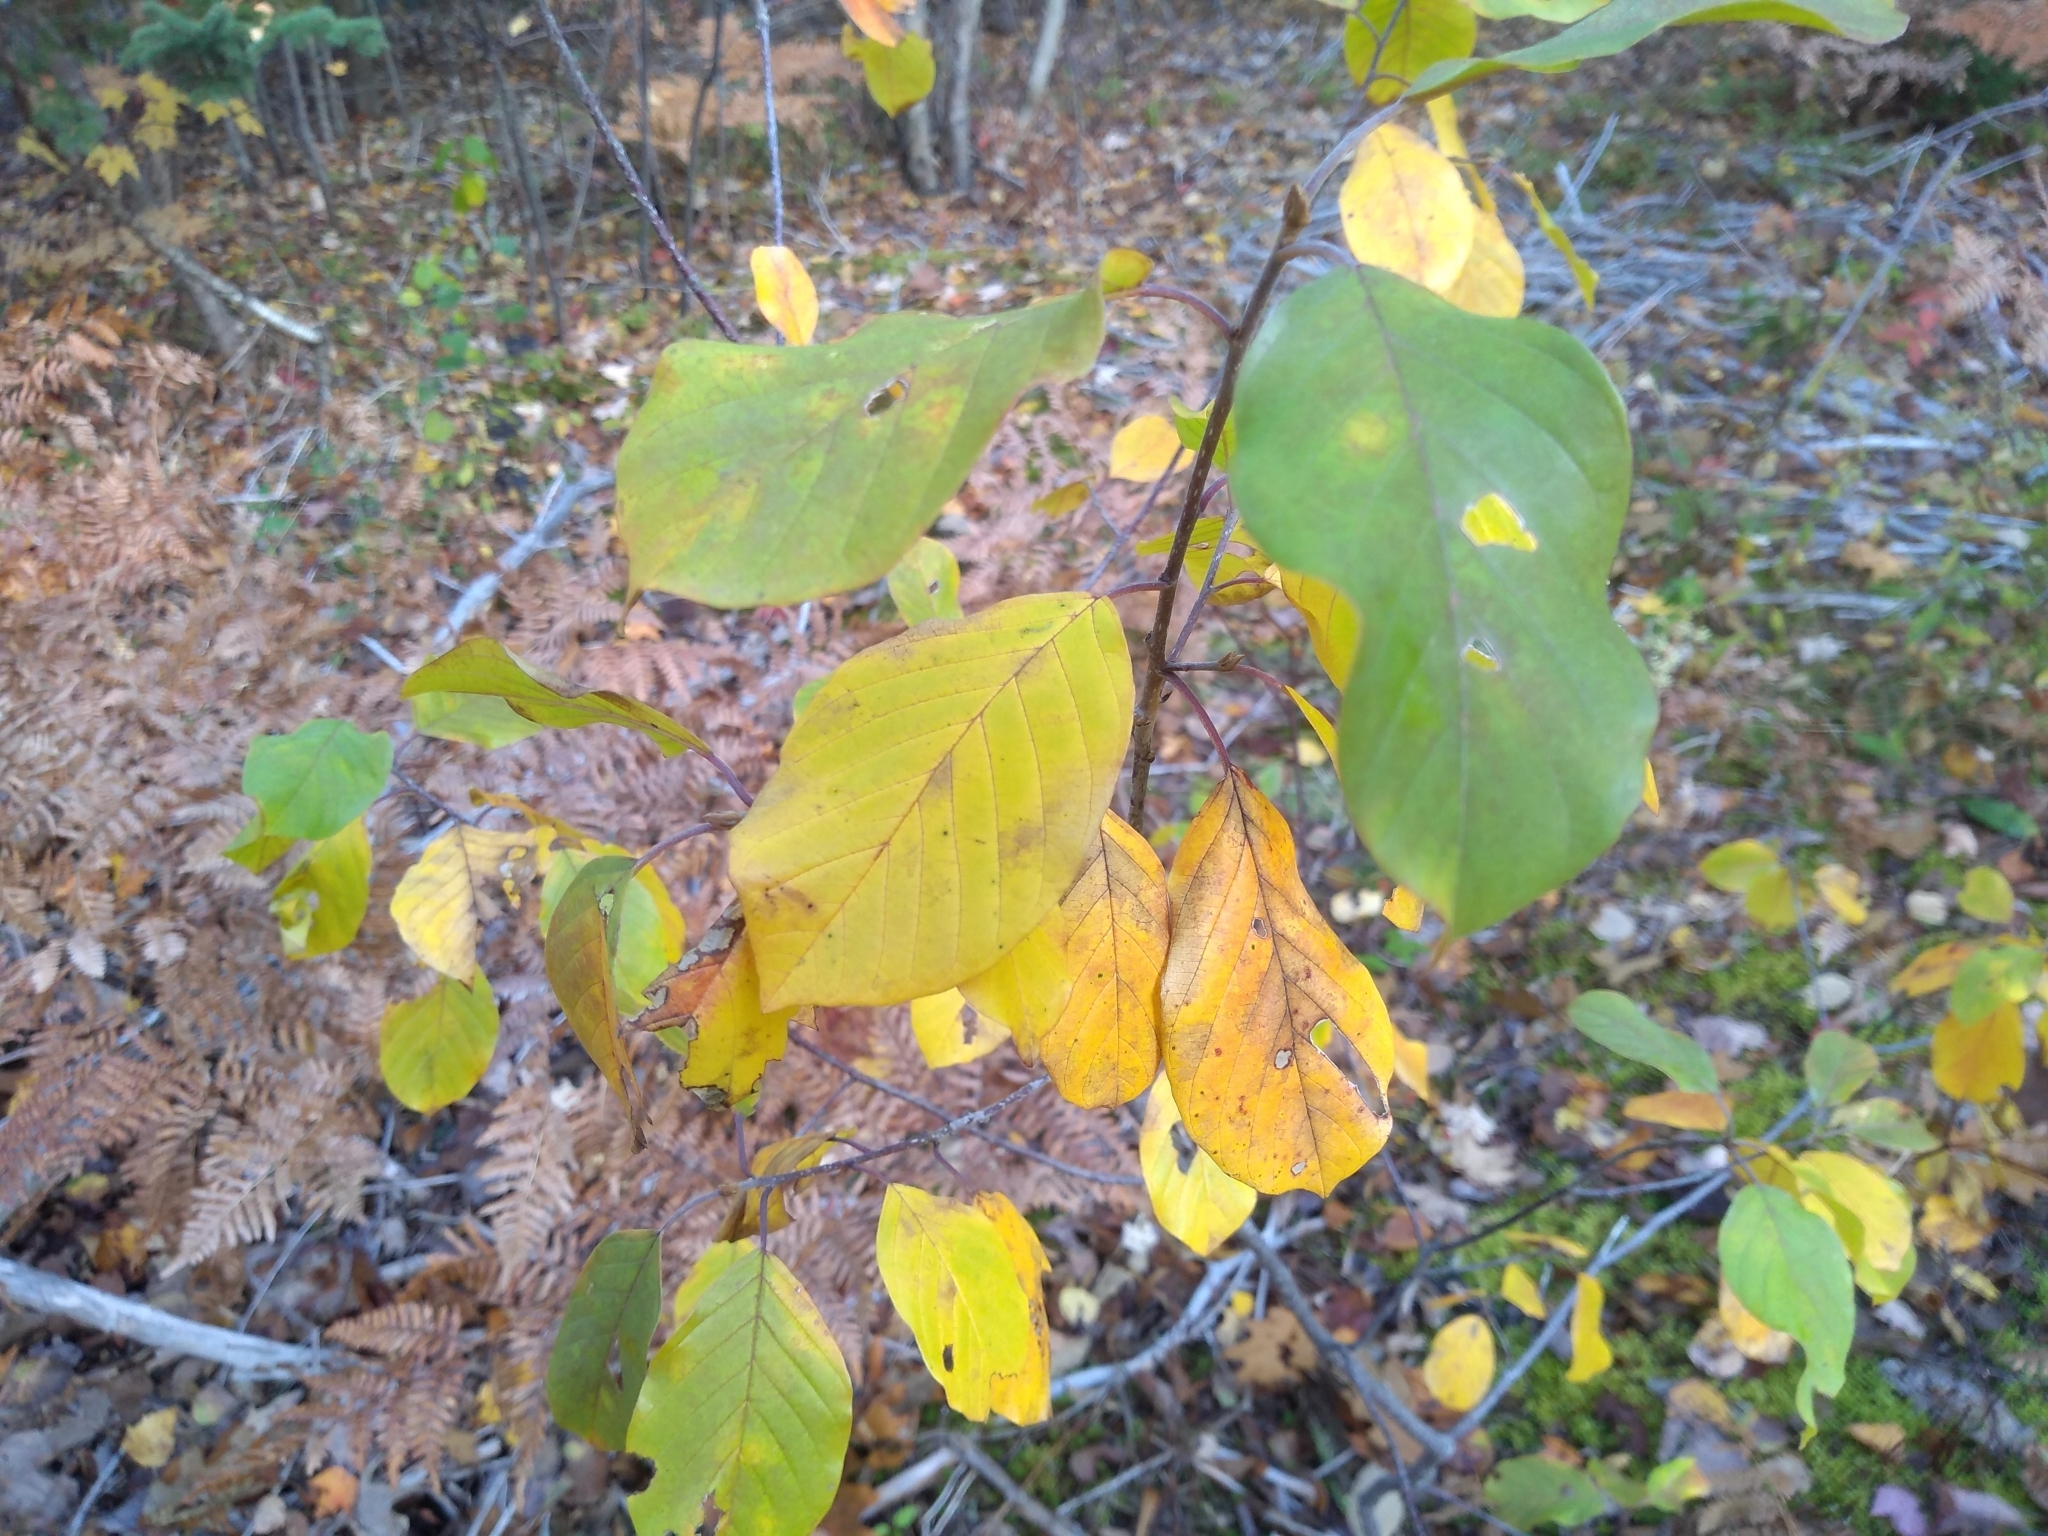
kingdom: Plantae
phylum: Tracheophyta
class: Magnoliopsida
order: Rosales
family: Rhamnaceae
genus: Frangula
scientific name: Frangula alnus
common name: Alder buckthorn
